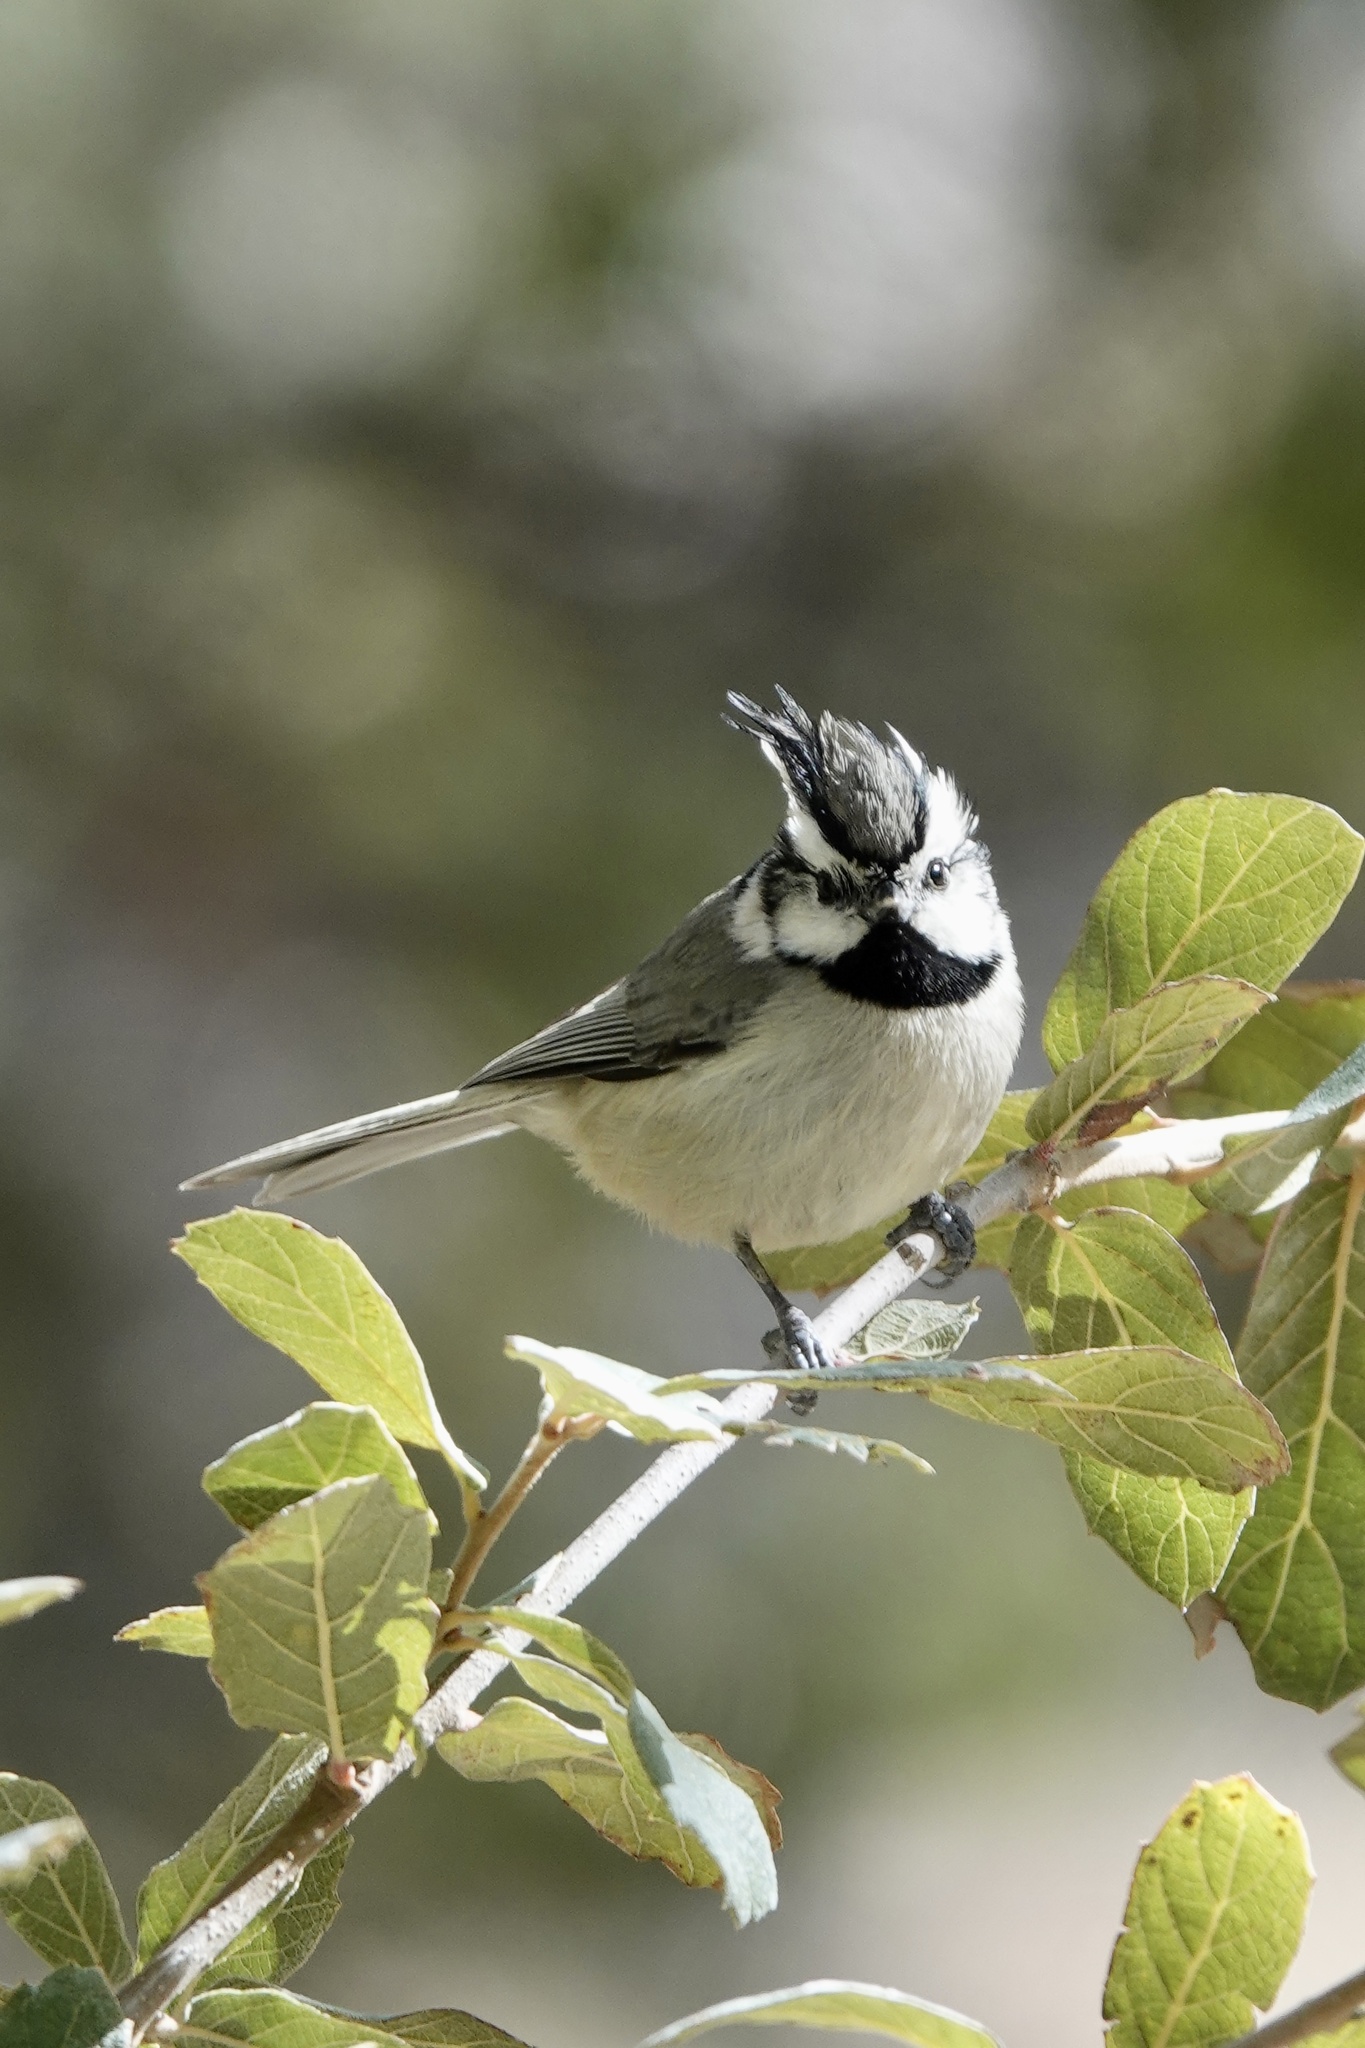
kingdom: Animalia
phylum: Chordata
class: Aves
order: Passeriformes
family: Paridae
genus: Baeolophus
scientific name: Baeolophus wollweberi
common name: Bridled titmouse
